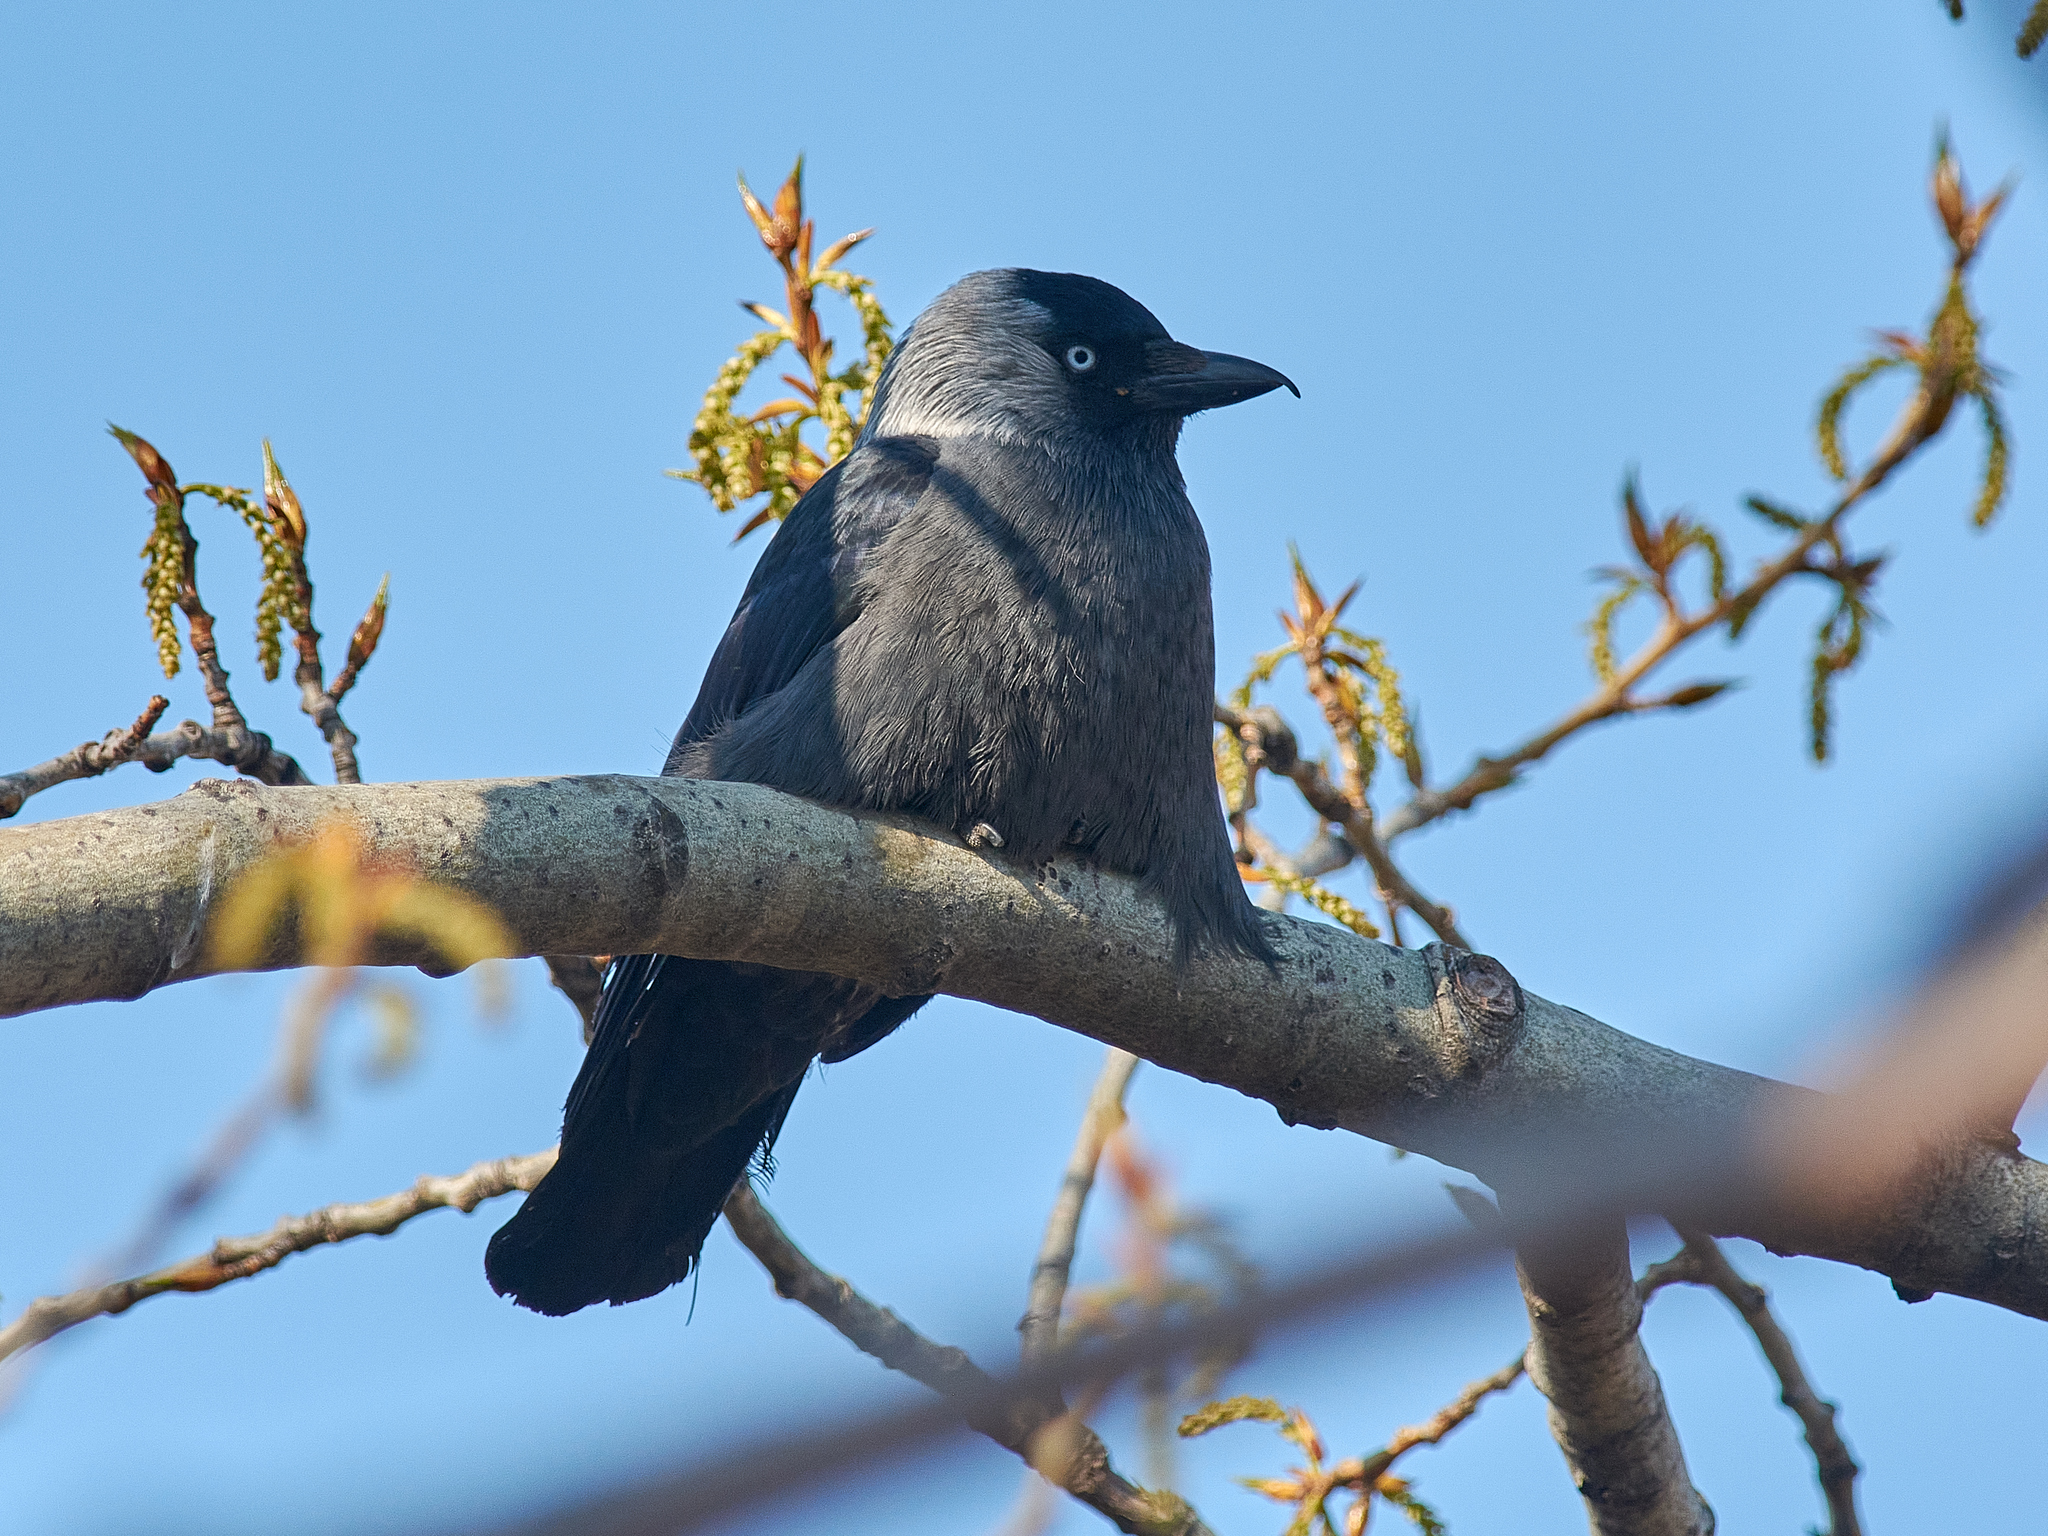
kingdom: Animalia
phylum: Chordata
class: Aves
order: Passeriformes
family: Corvidae
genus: Coloeus
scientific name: Coloeus monedula
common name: Western jackdaw
